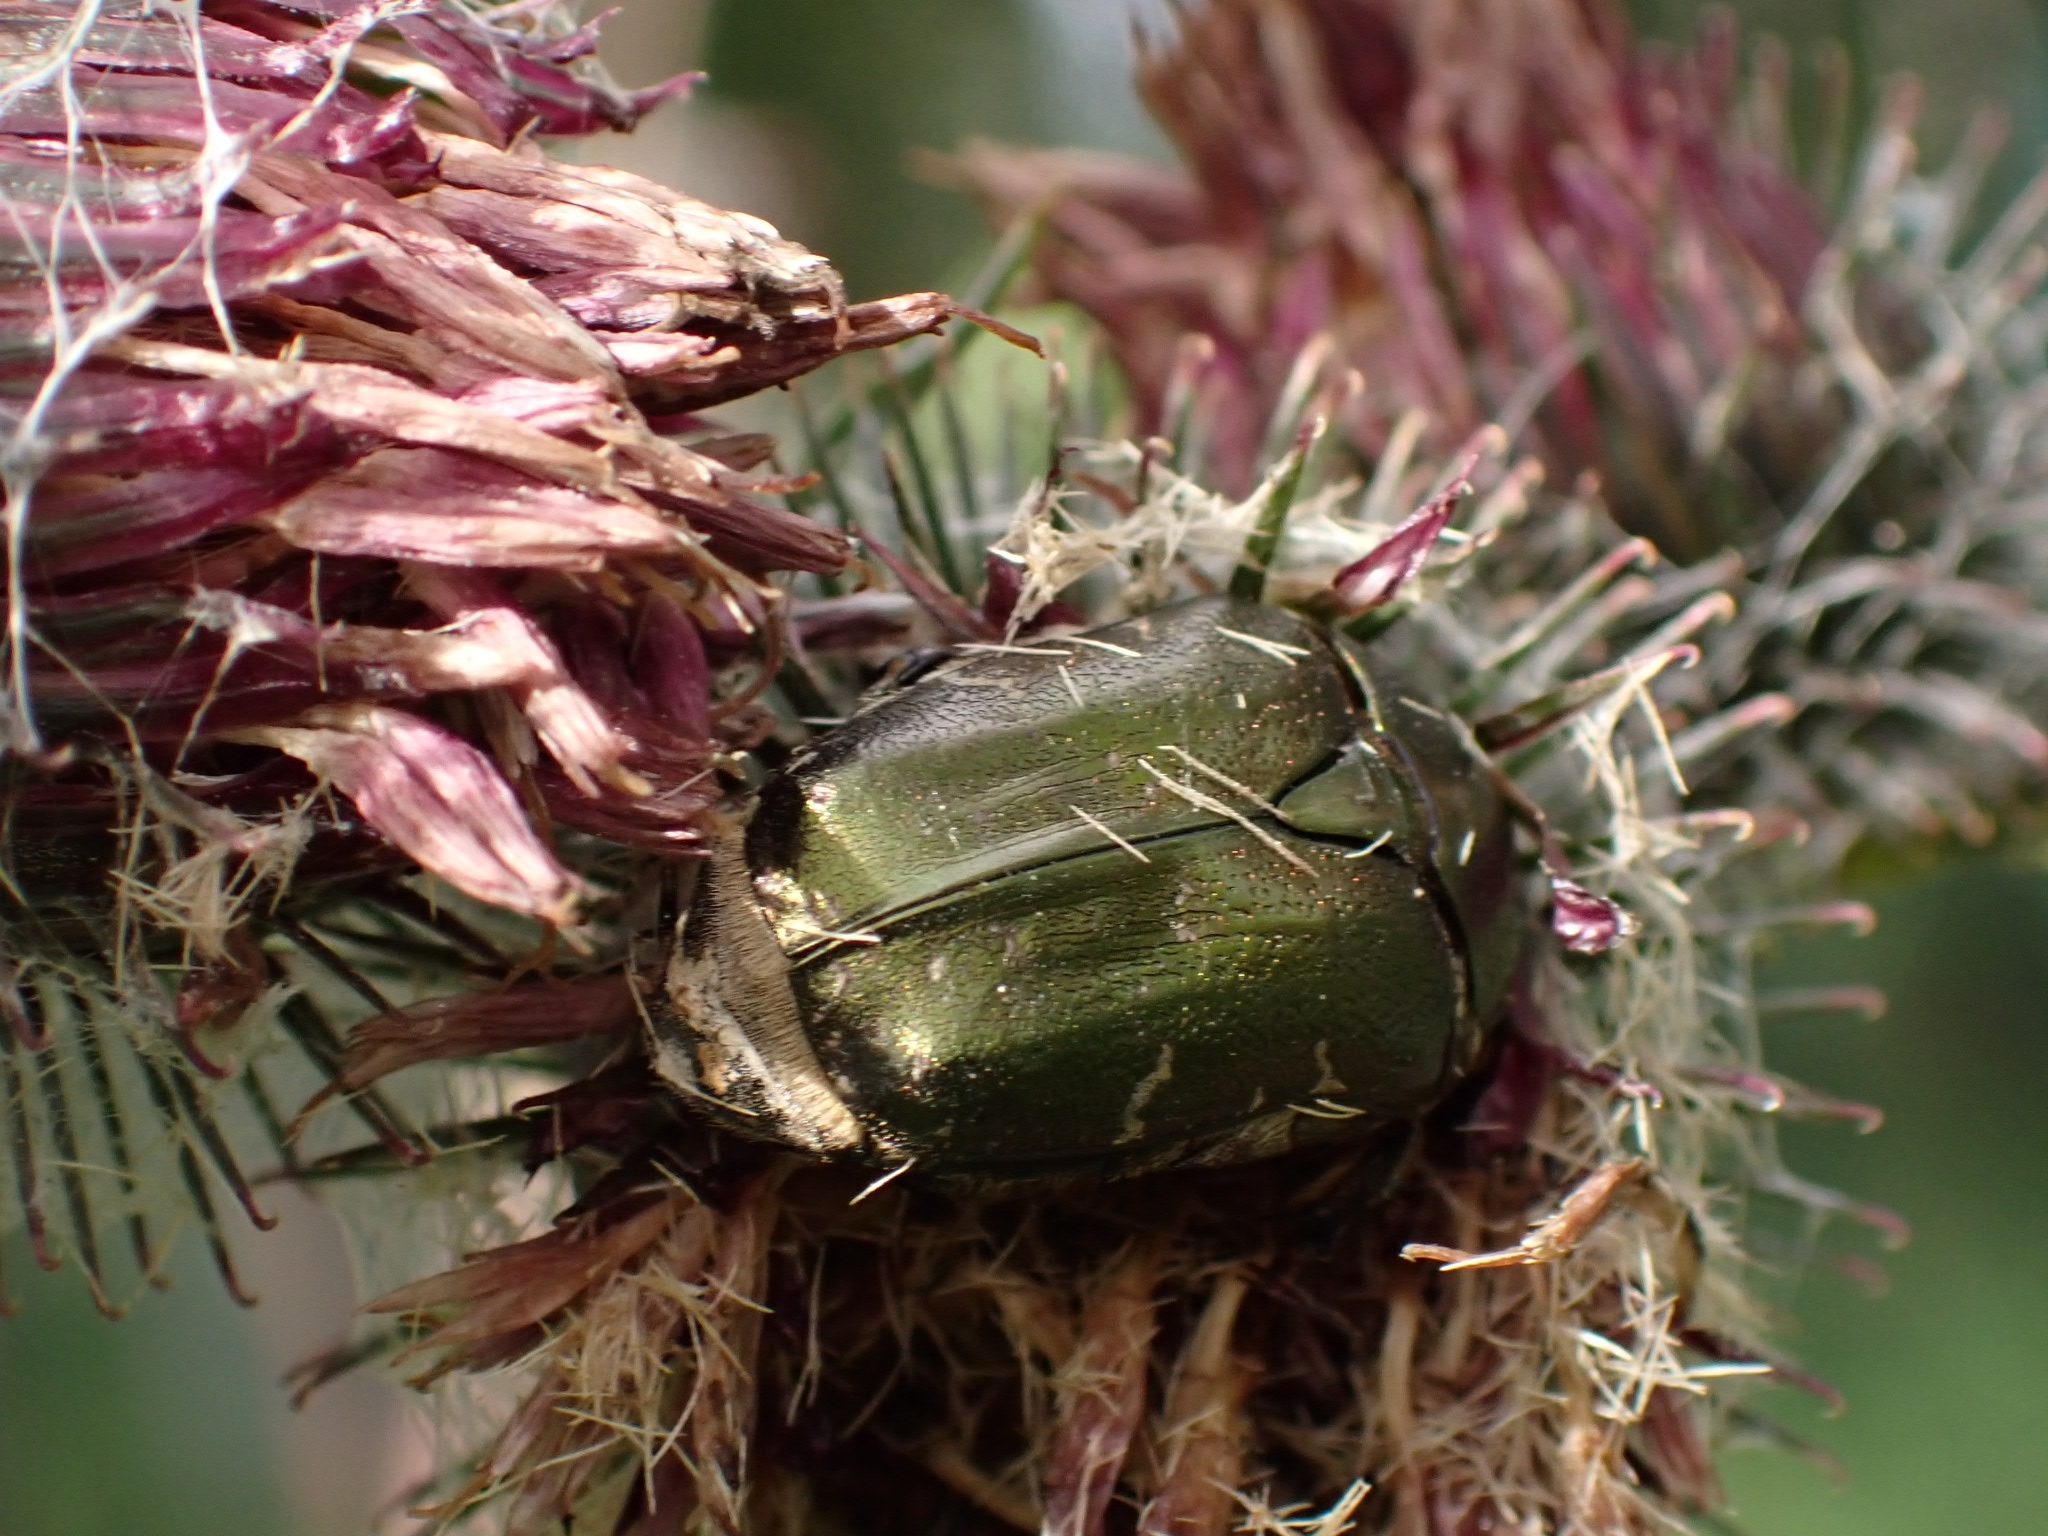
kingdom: Animalia
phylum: Arthropoda
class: Insecta
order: Coleoptera
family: Scarabaeidae
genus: Protaetia
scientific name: Protaetia cuprea
